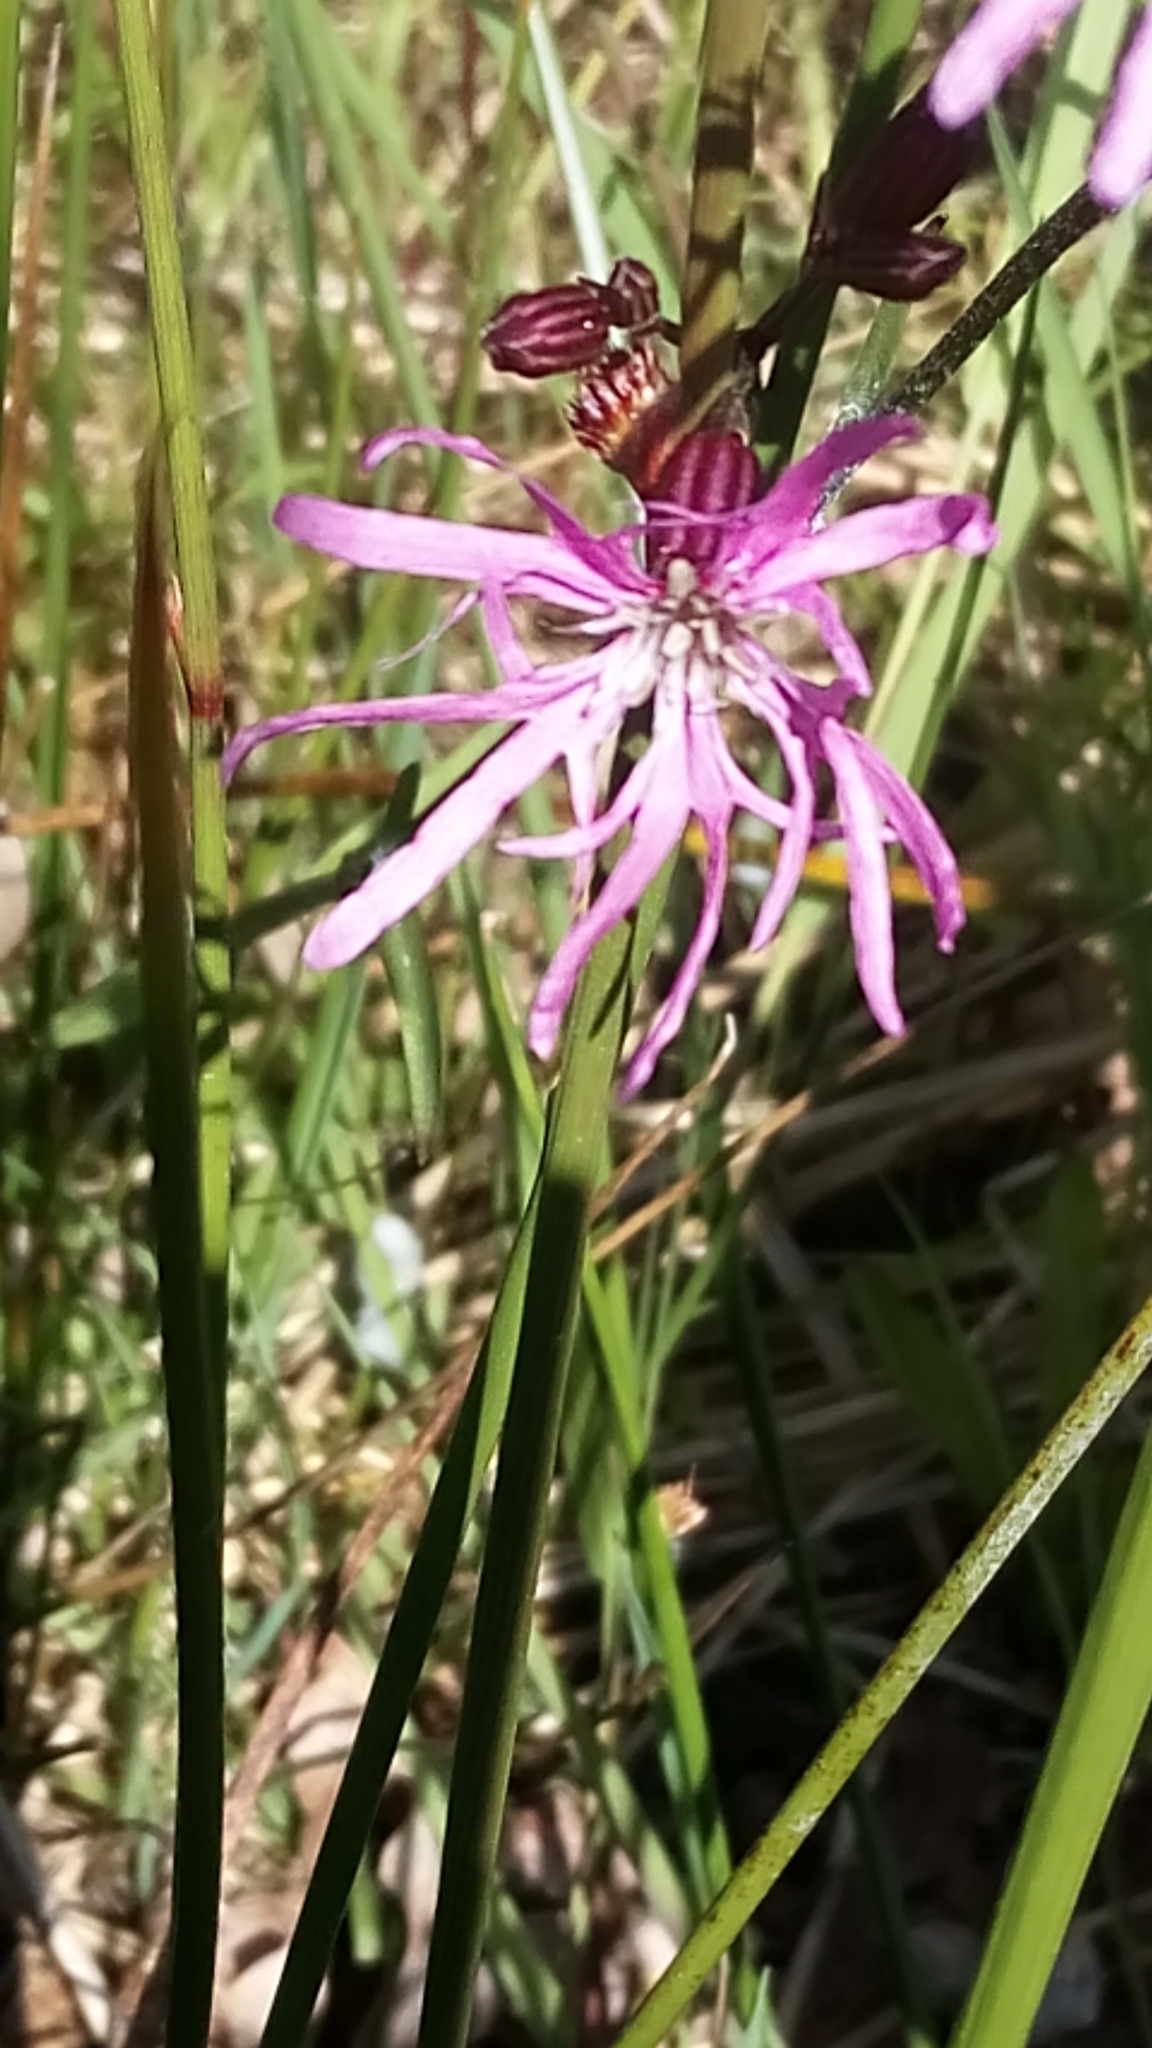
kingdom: Plantae
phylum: Tracheophyta
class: Magnoliopsida
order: Caryophyllales
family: Caryophyllaceae
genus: Silene
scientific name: Silene flos-cuculi
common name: Ragged-robin
